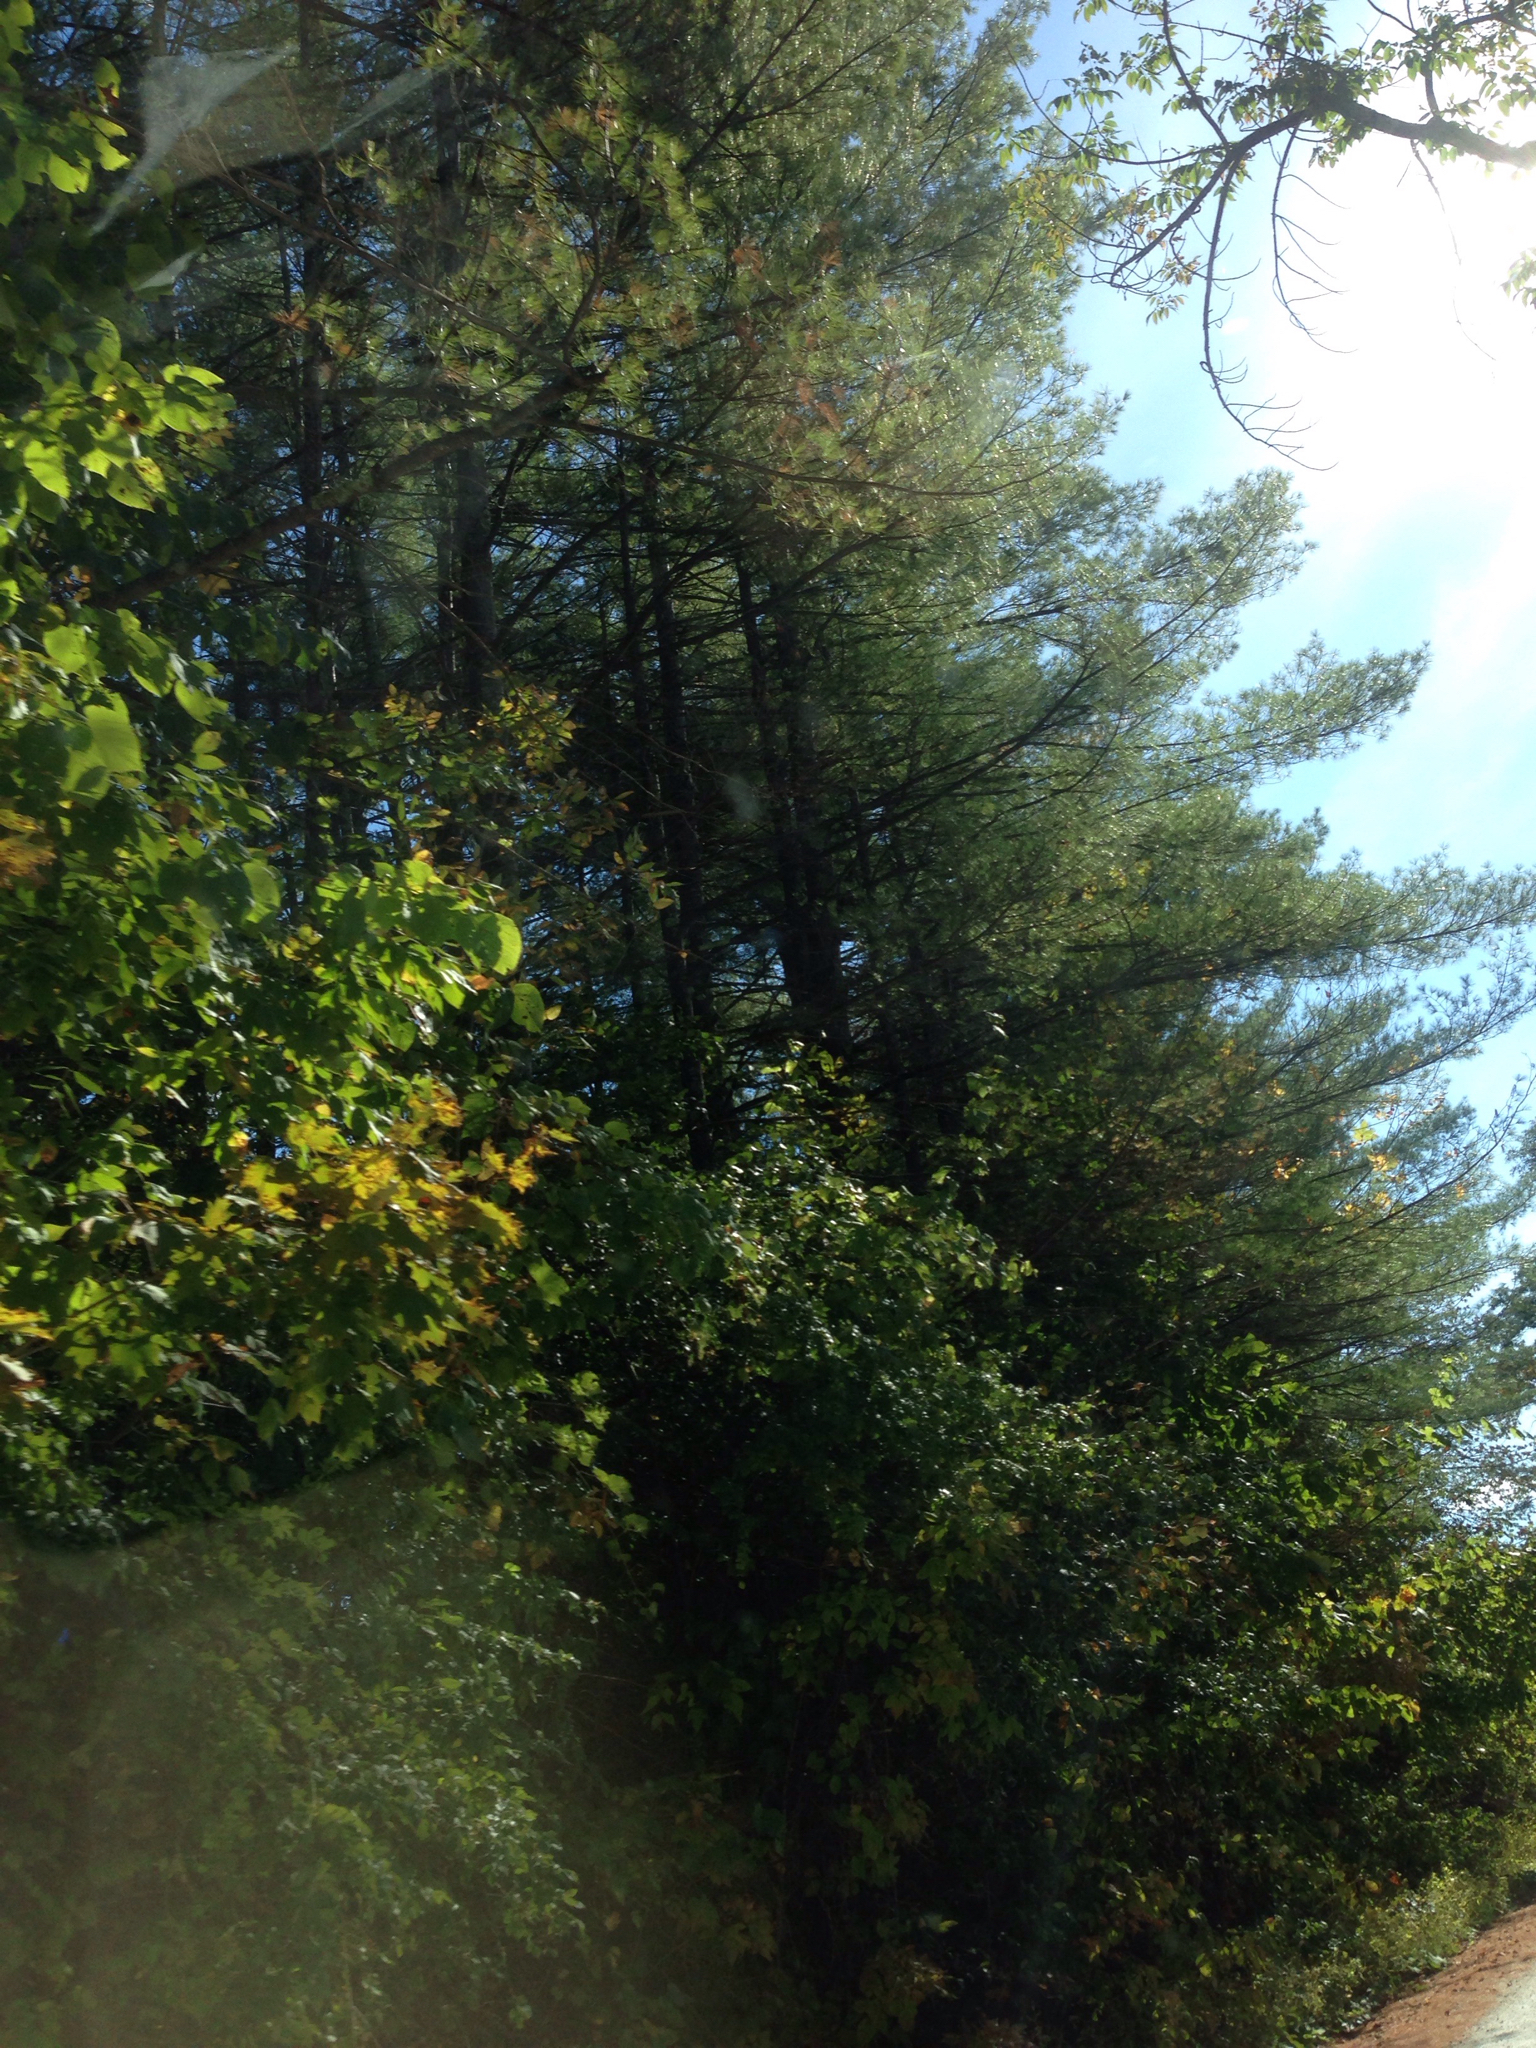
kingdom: Plantae
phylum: Tracheophyta
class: Pinopsida
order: Pinales
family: Pinaceae
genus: Pinus
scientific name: Pinus strobus
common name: Weymouth pine
